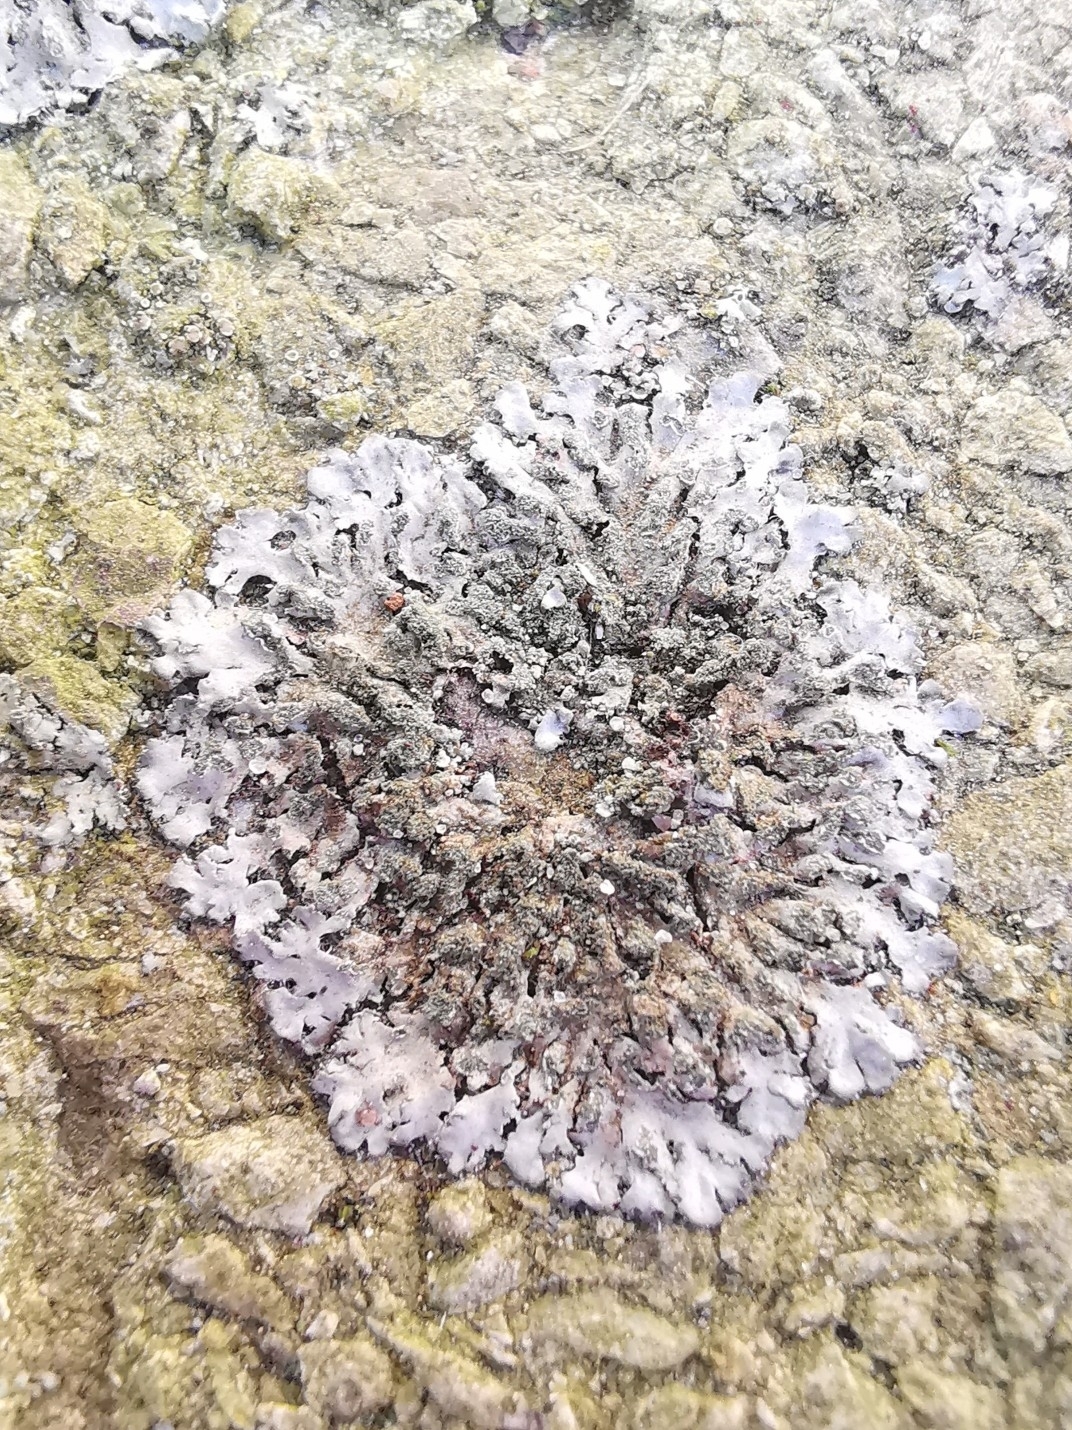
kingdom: Fungi
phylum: Ascomycota
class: Lecanoromycetes
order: Caliciales
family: Physciaceae
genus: Phaeophyscia
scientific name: Phaeophyscia orbicularis
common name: Mealy shadow lichen
